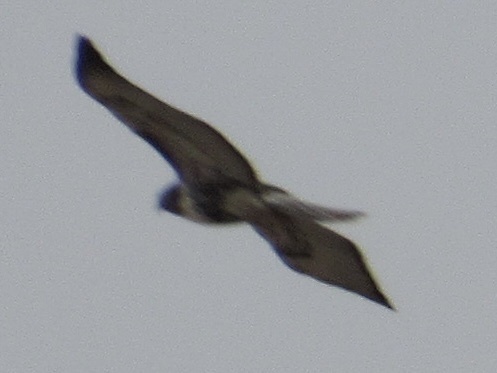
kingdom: Animalia
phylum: Chordata
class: Aves
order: Accipitriformes
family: Accipitridae
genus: Buteo
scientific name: Buteo jamaicensis
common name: Red-tailed hawk
